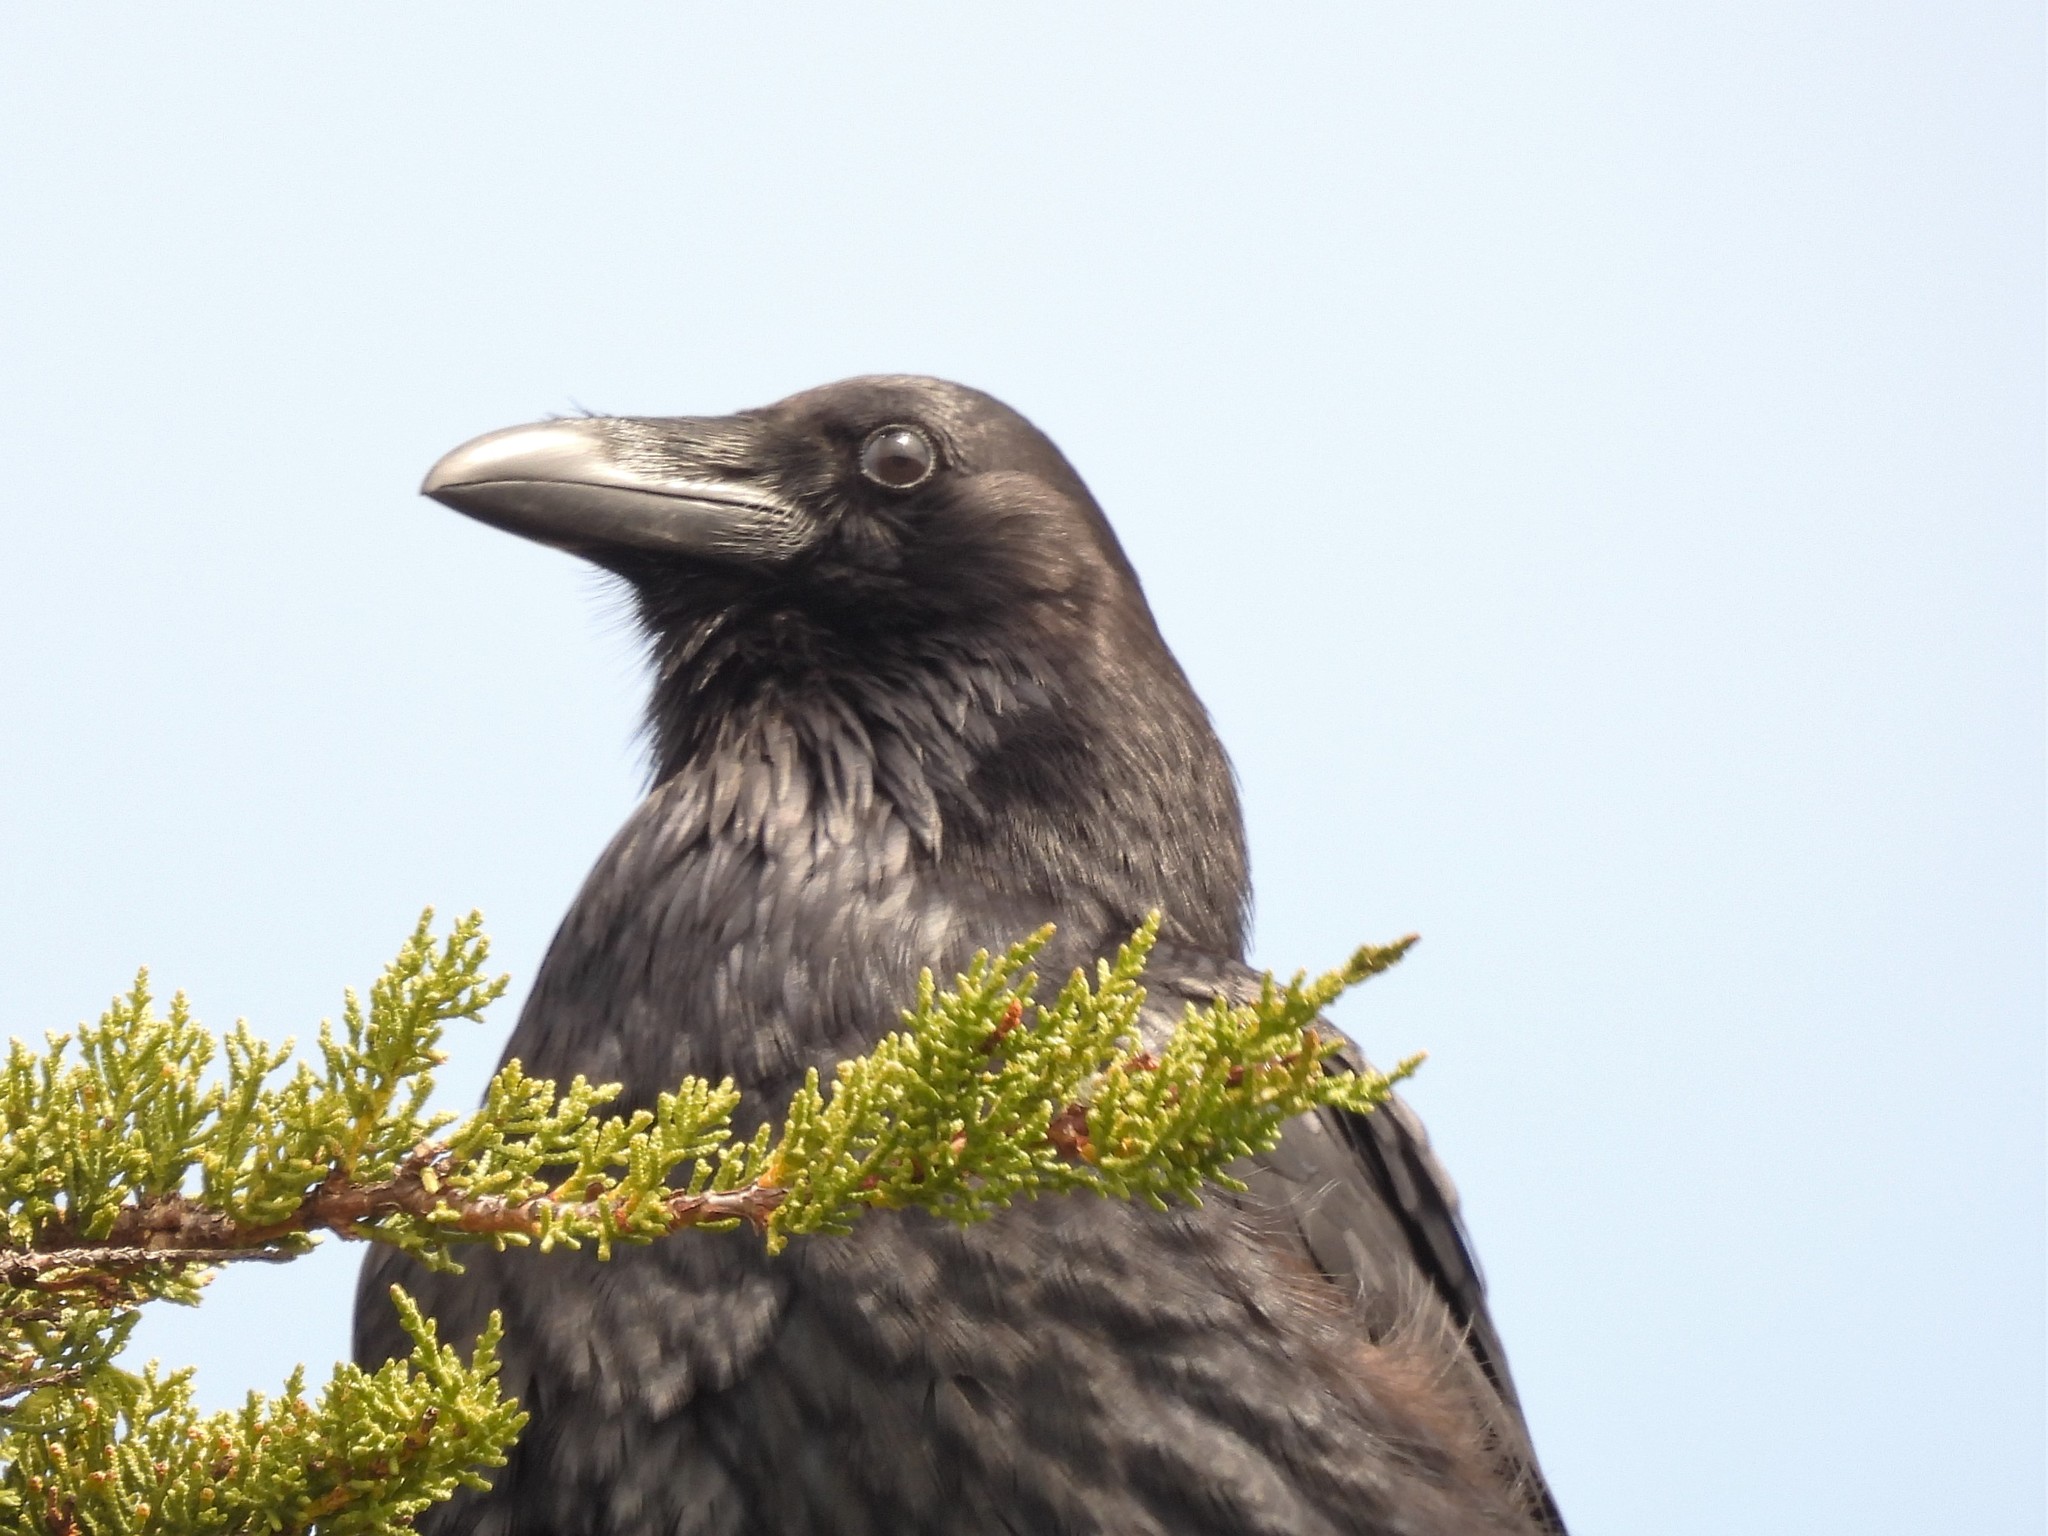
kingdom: Animalia
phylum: Chordata
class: Aves
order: Passeriformes
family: Corvidae
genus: Corvus
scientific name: Corvus corax
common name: Common raven
